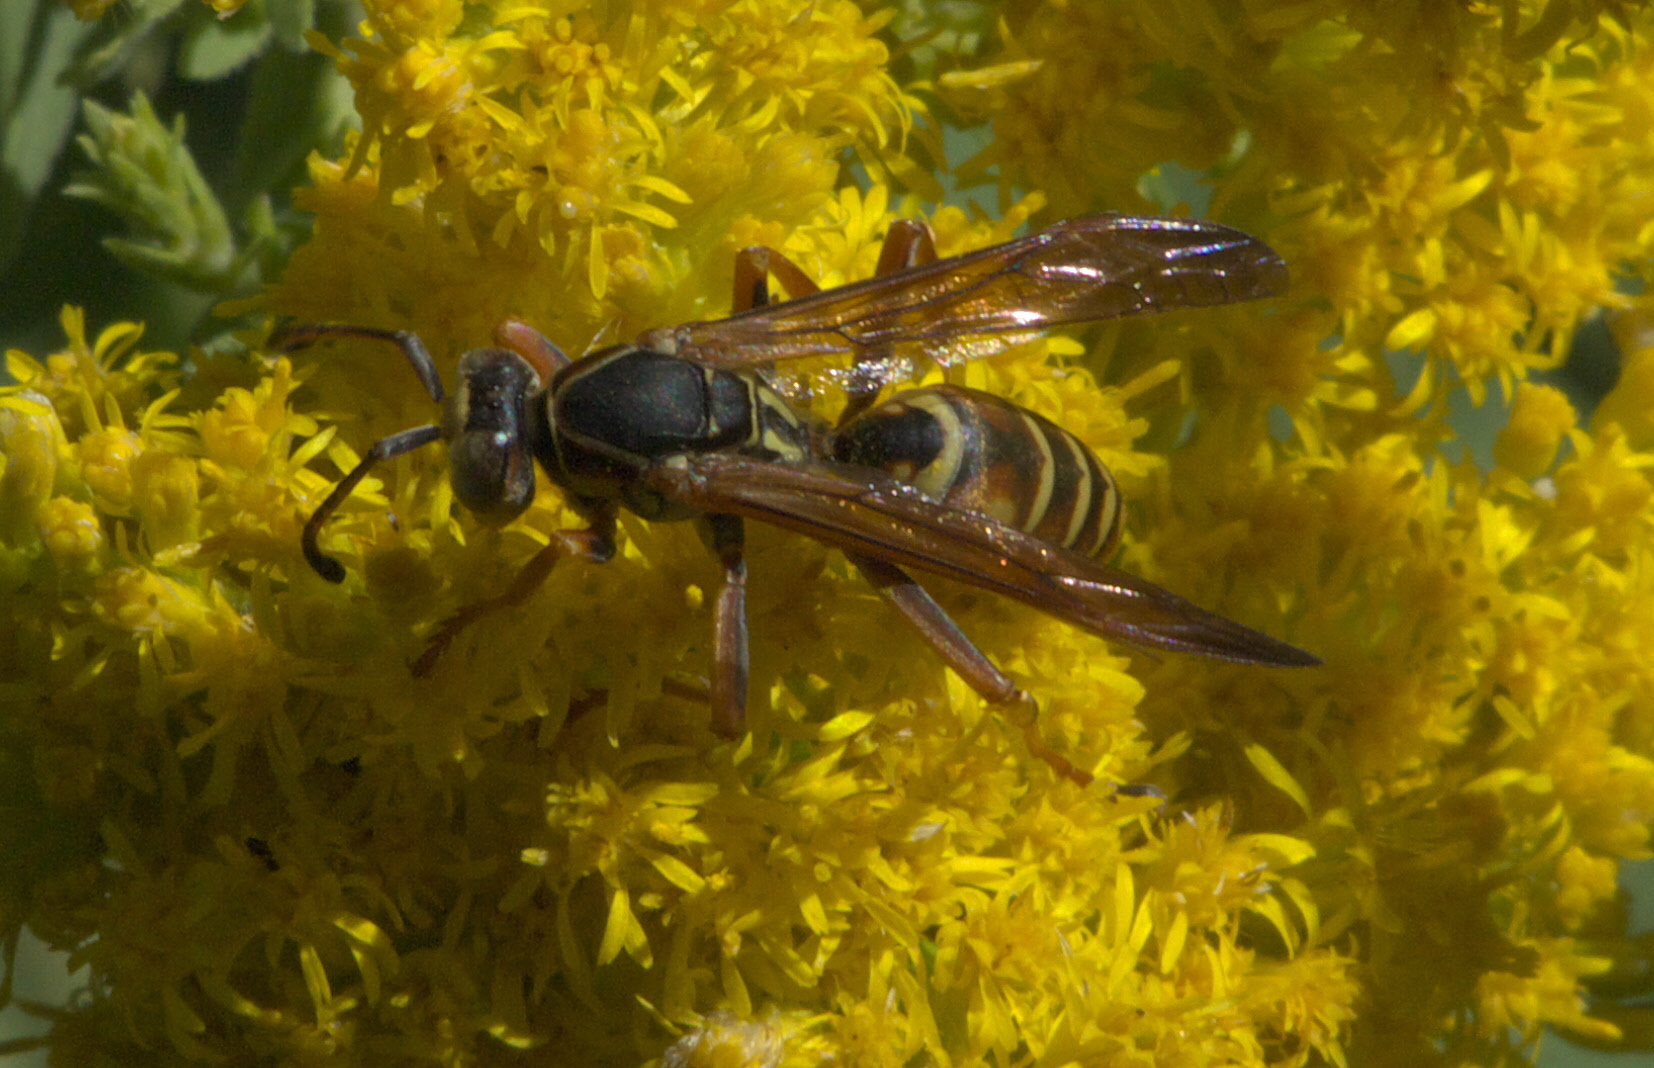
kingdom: Animalia
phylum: Arthropoda
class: Insecta
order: Hymenoptera
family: Eumenidae
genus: Polistes
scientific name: Polistes fuscatus
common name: Dark paper wasp
